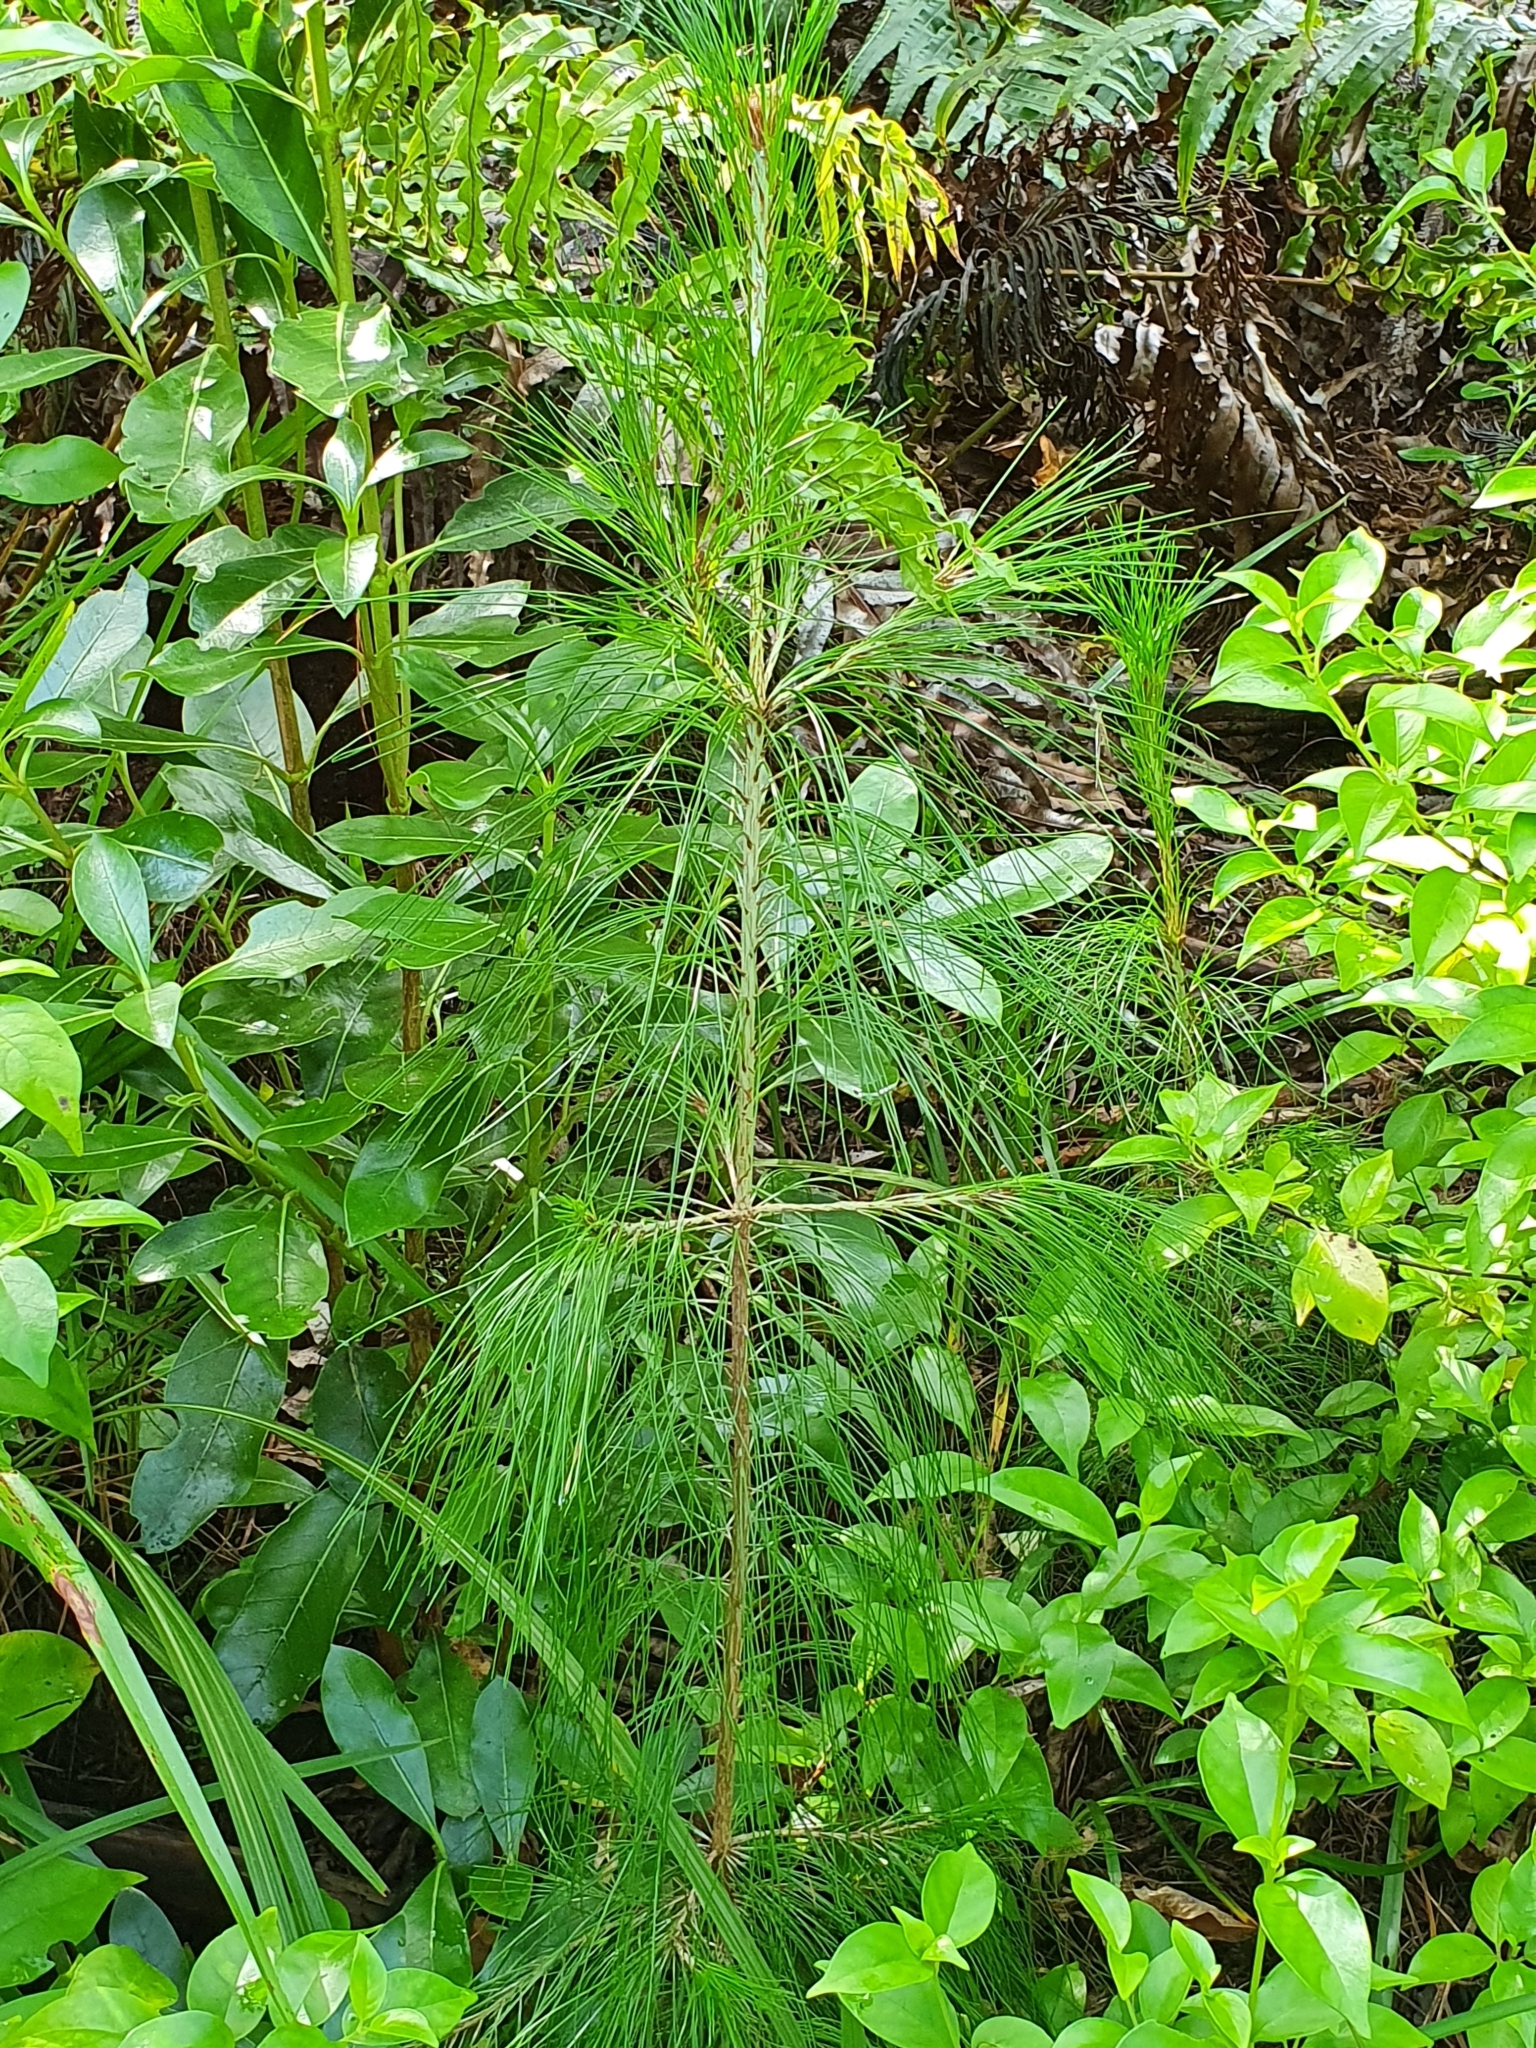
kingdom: Plantae
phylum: Tracheophyta
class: Pinopsida
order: Pinales
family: Pinaceae
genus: Pinus
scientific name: Pinus patula
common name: Mexican weeping pine
